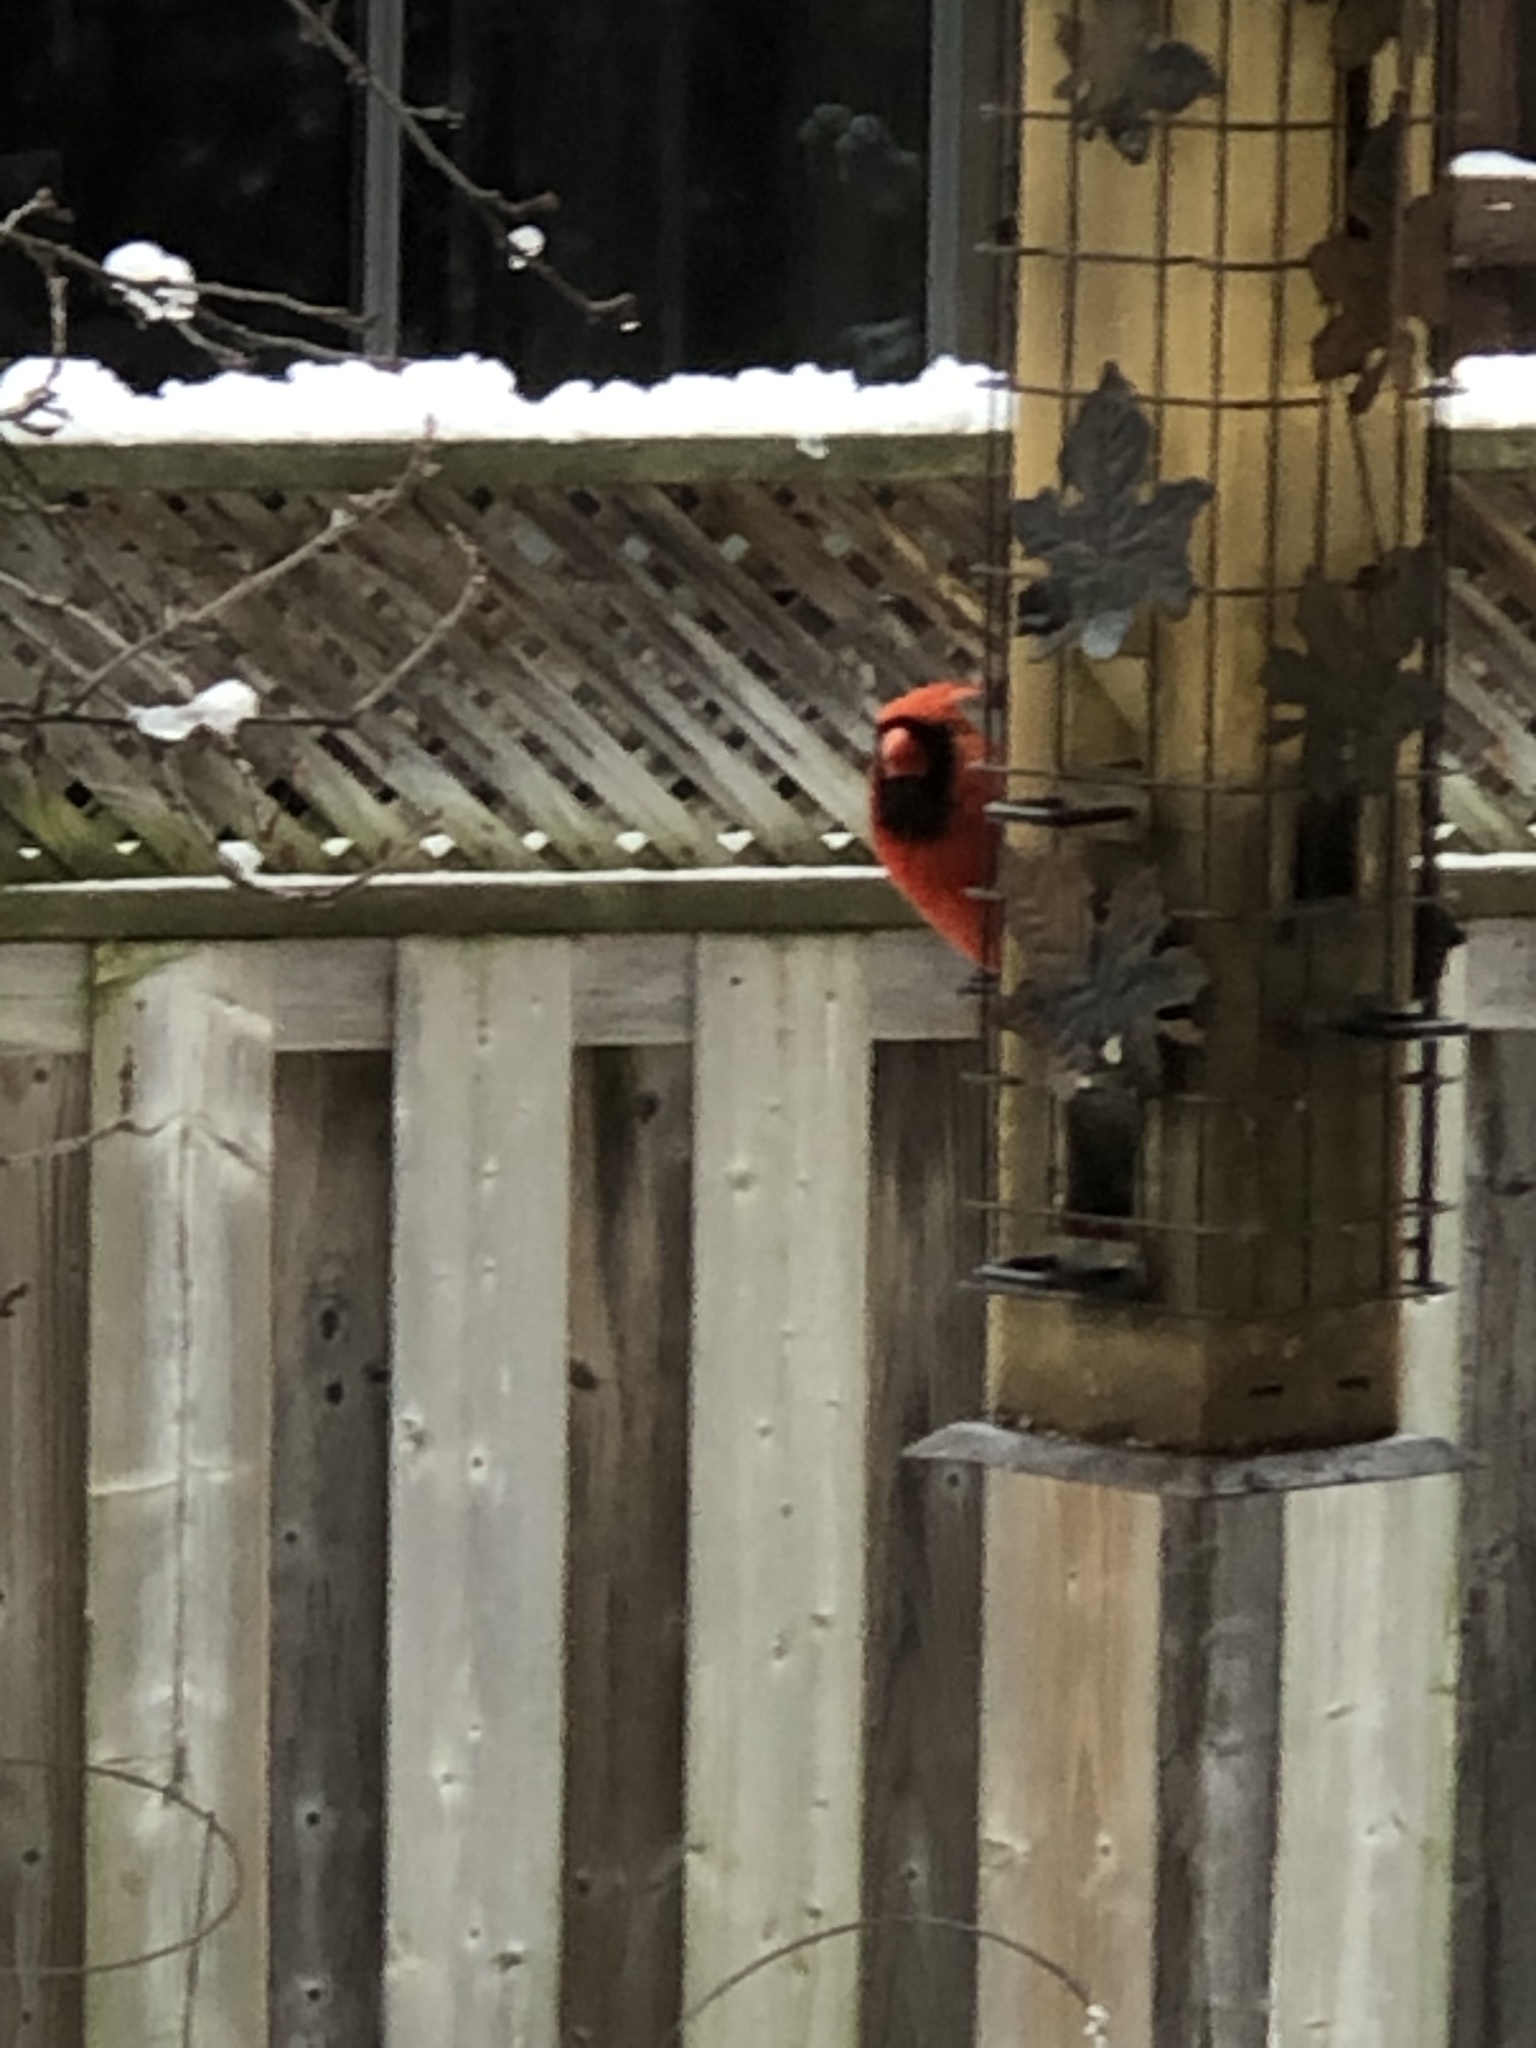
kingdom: Animalia
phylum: Chordata
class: Aves
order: Passeriformes
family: Cardinalidae
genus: Cardinalis
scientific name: Cardinalis cardinalis
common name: Northern cardinal
